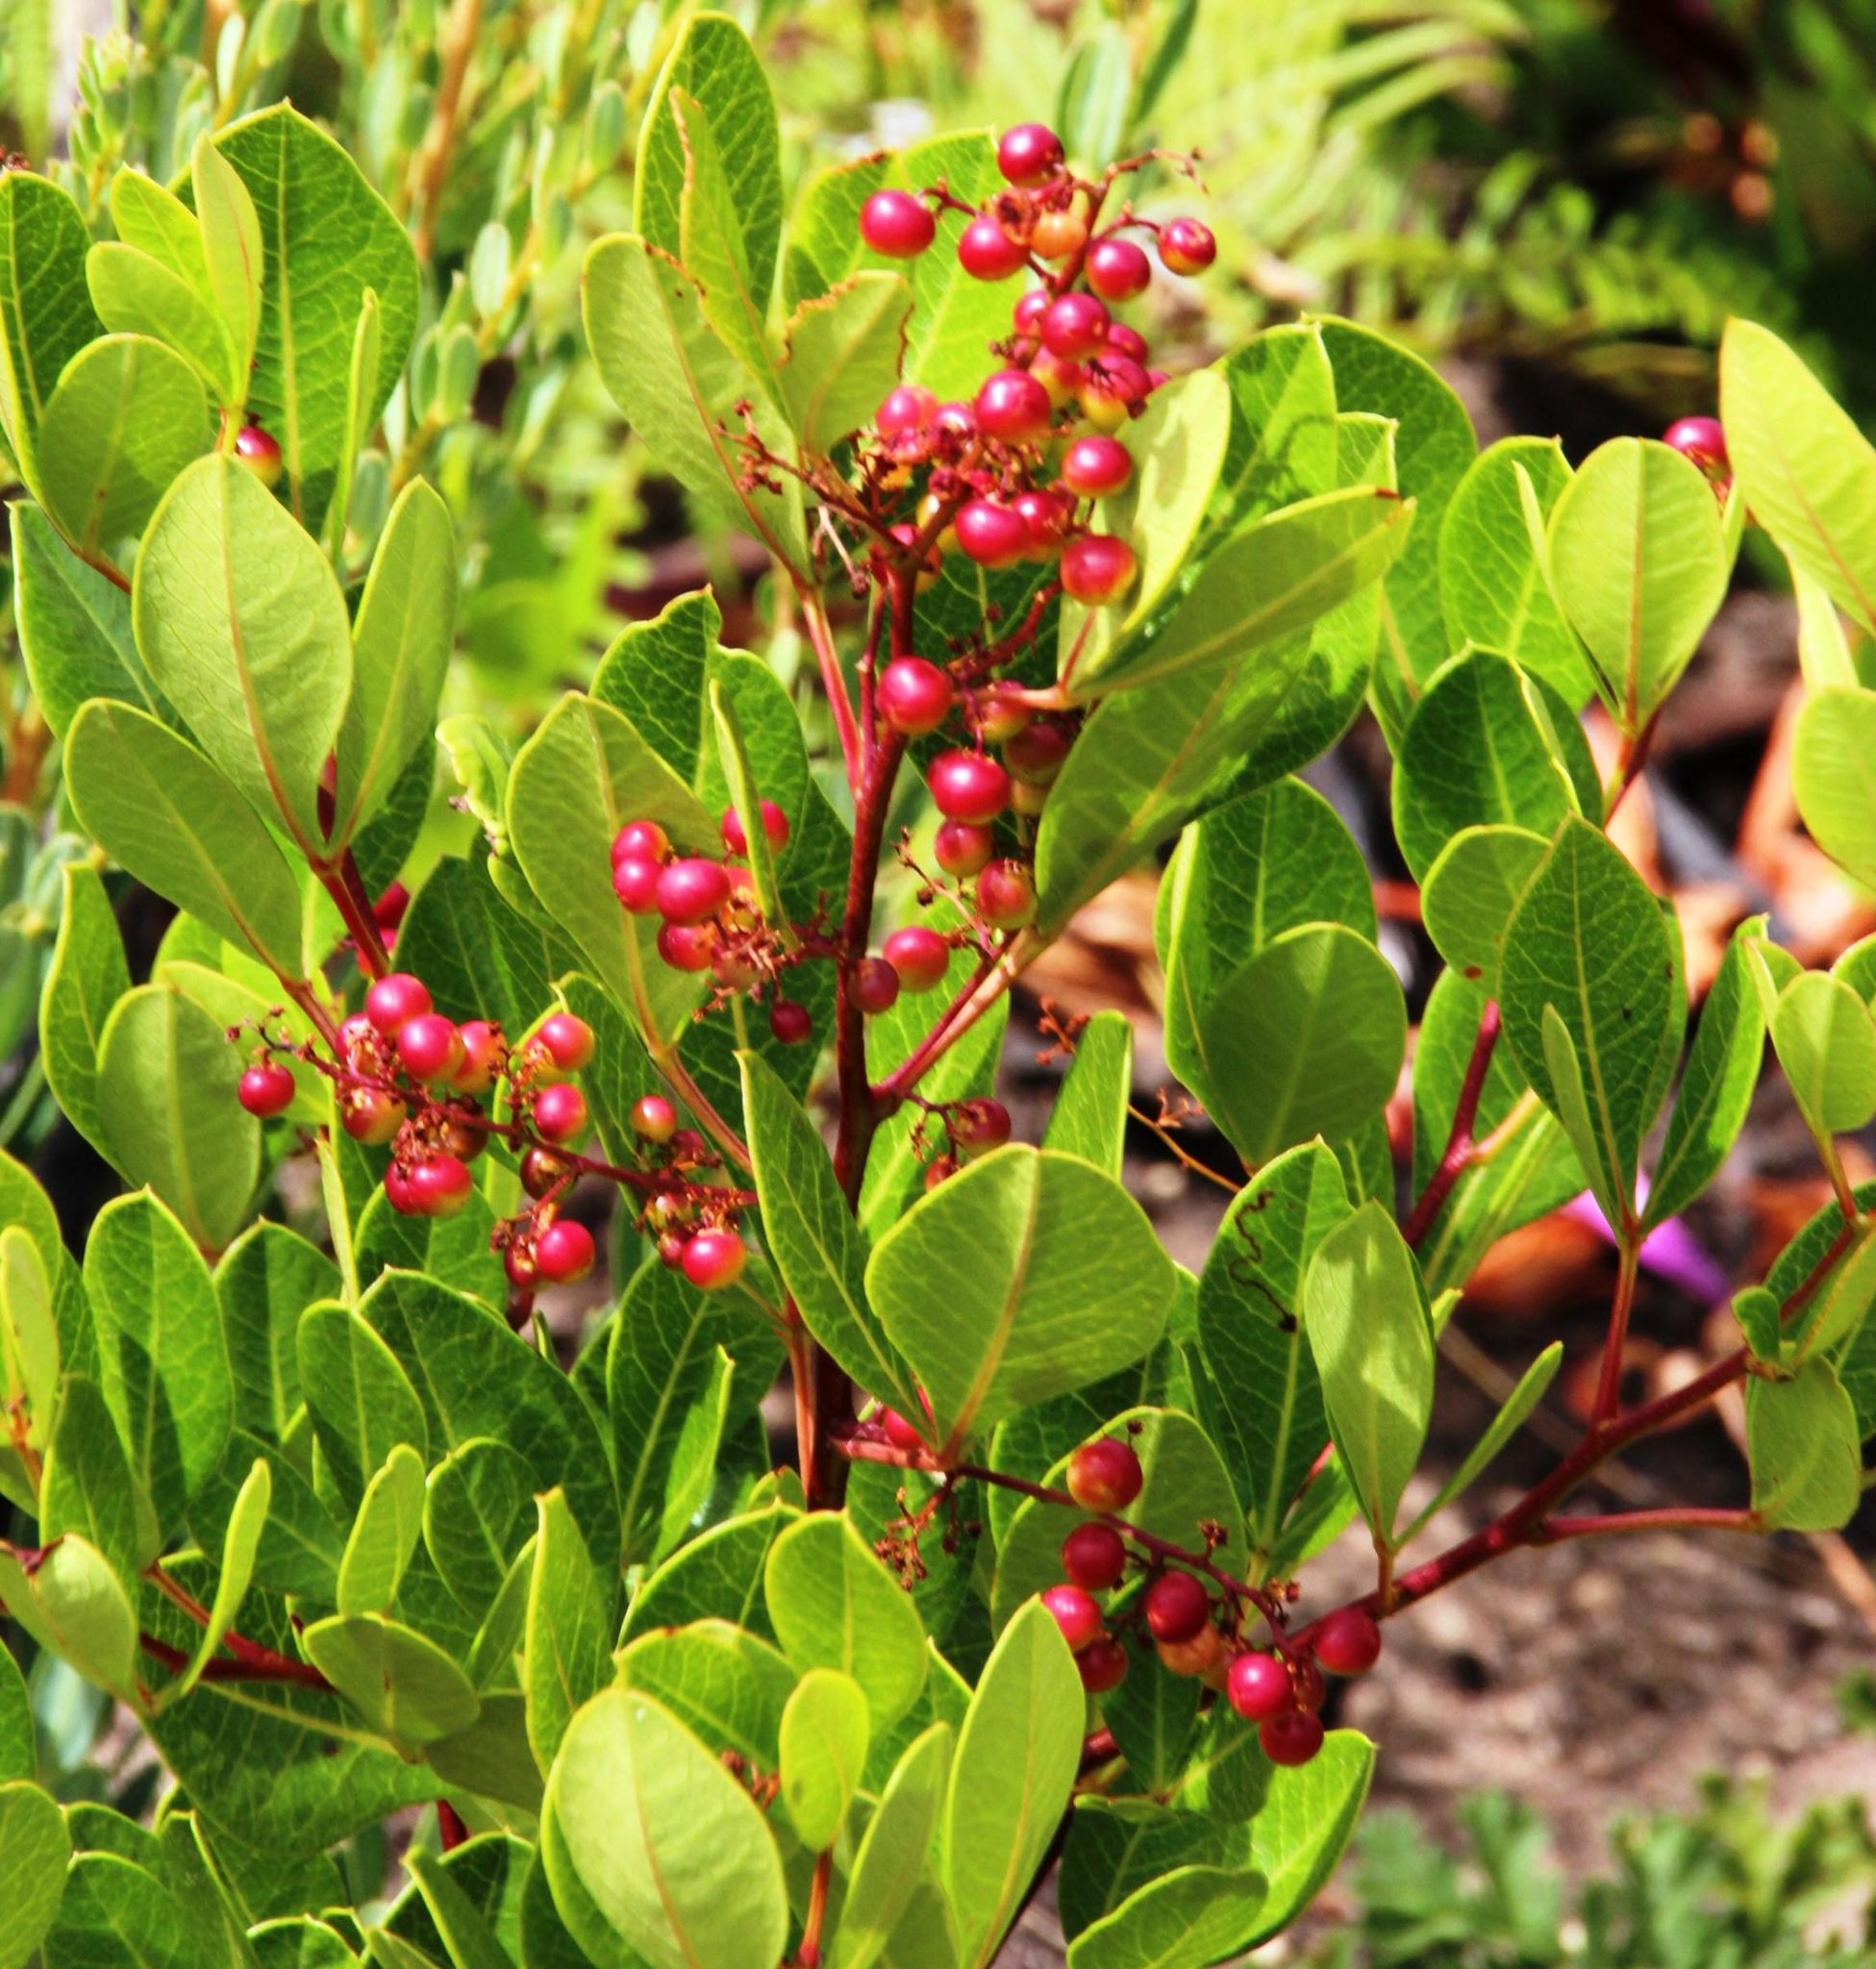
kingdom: Plantae
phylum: Tracheophyta
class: Magnoliopsida
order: Sapindales
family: Anacardiaceae
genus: Searsia
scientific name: Searsia laevigata
